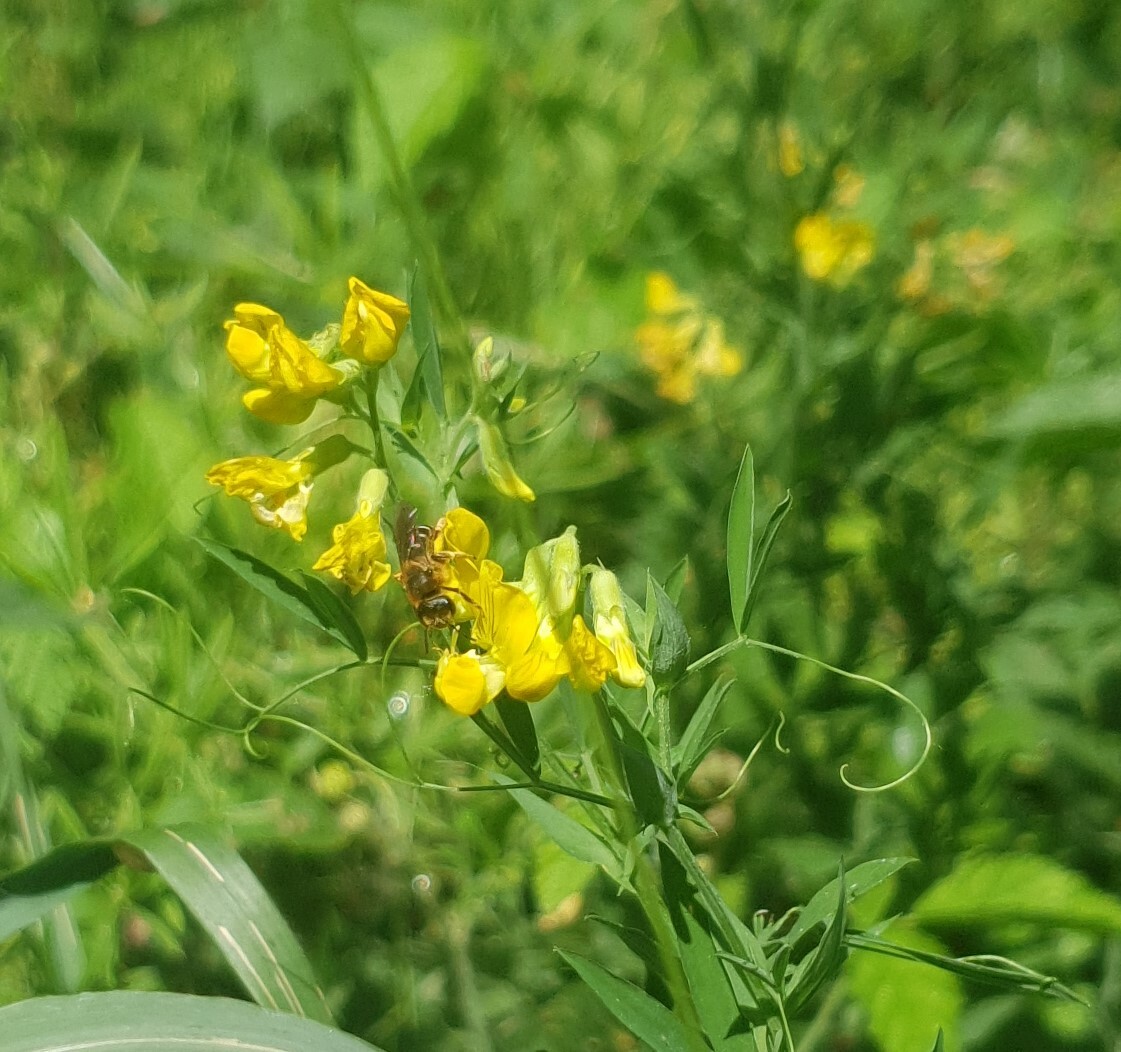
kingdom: Plantae
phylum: Tracheophyta
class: Magnoliopsida
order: Fabales
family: Fabaceae
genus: Lathyrus
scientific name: Lathyrus pratensis
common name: Meadow vetchling
